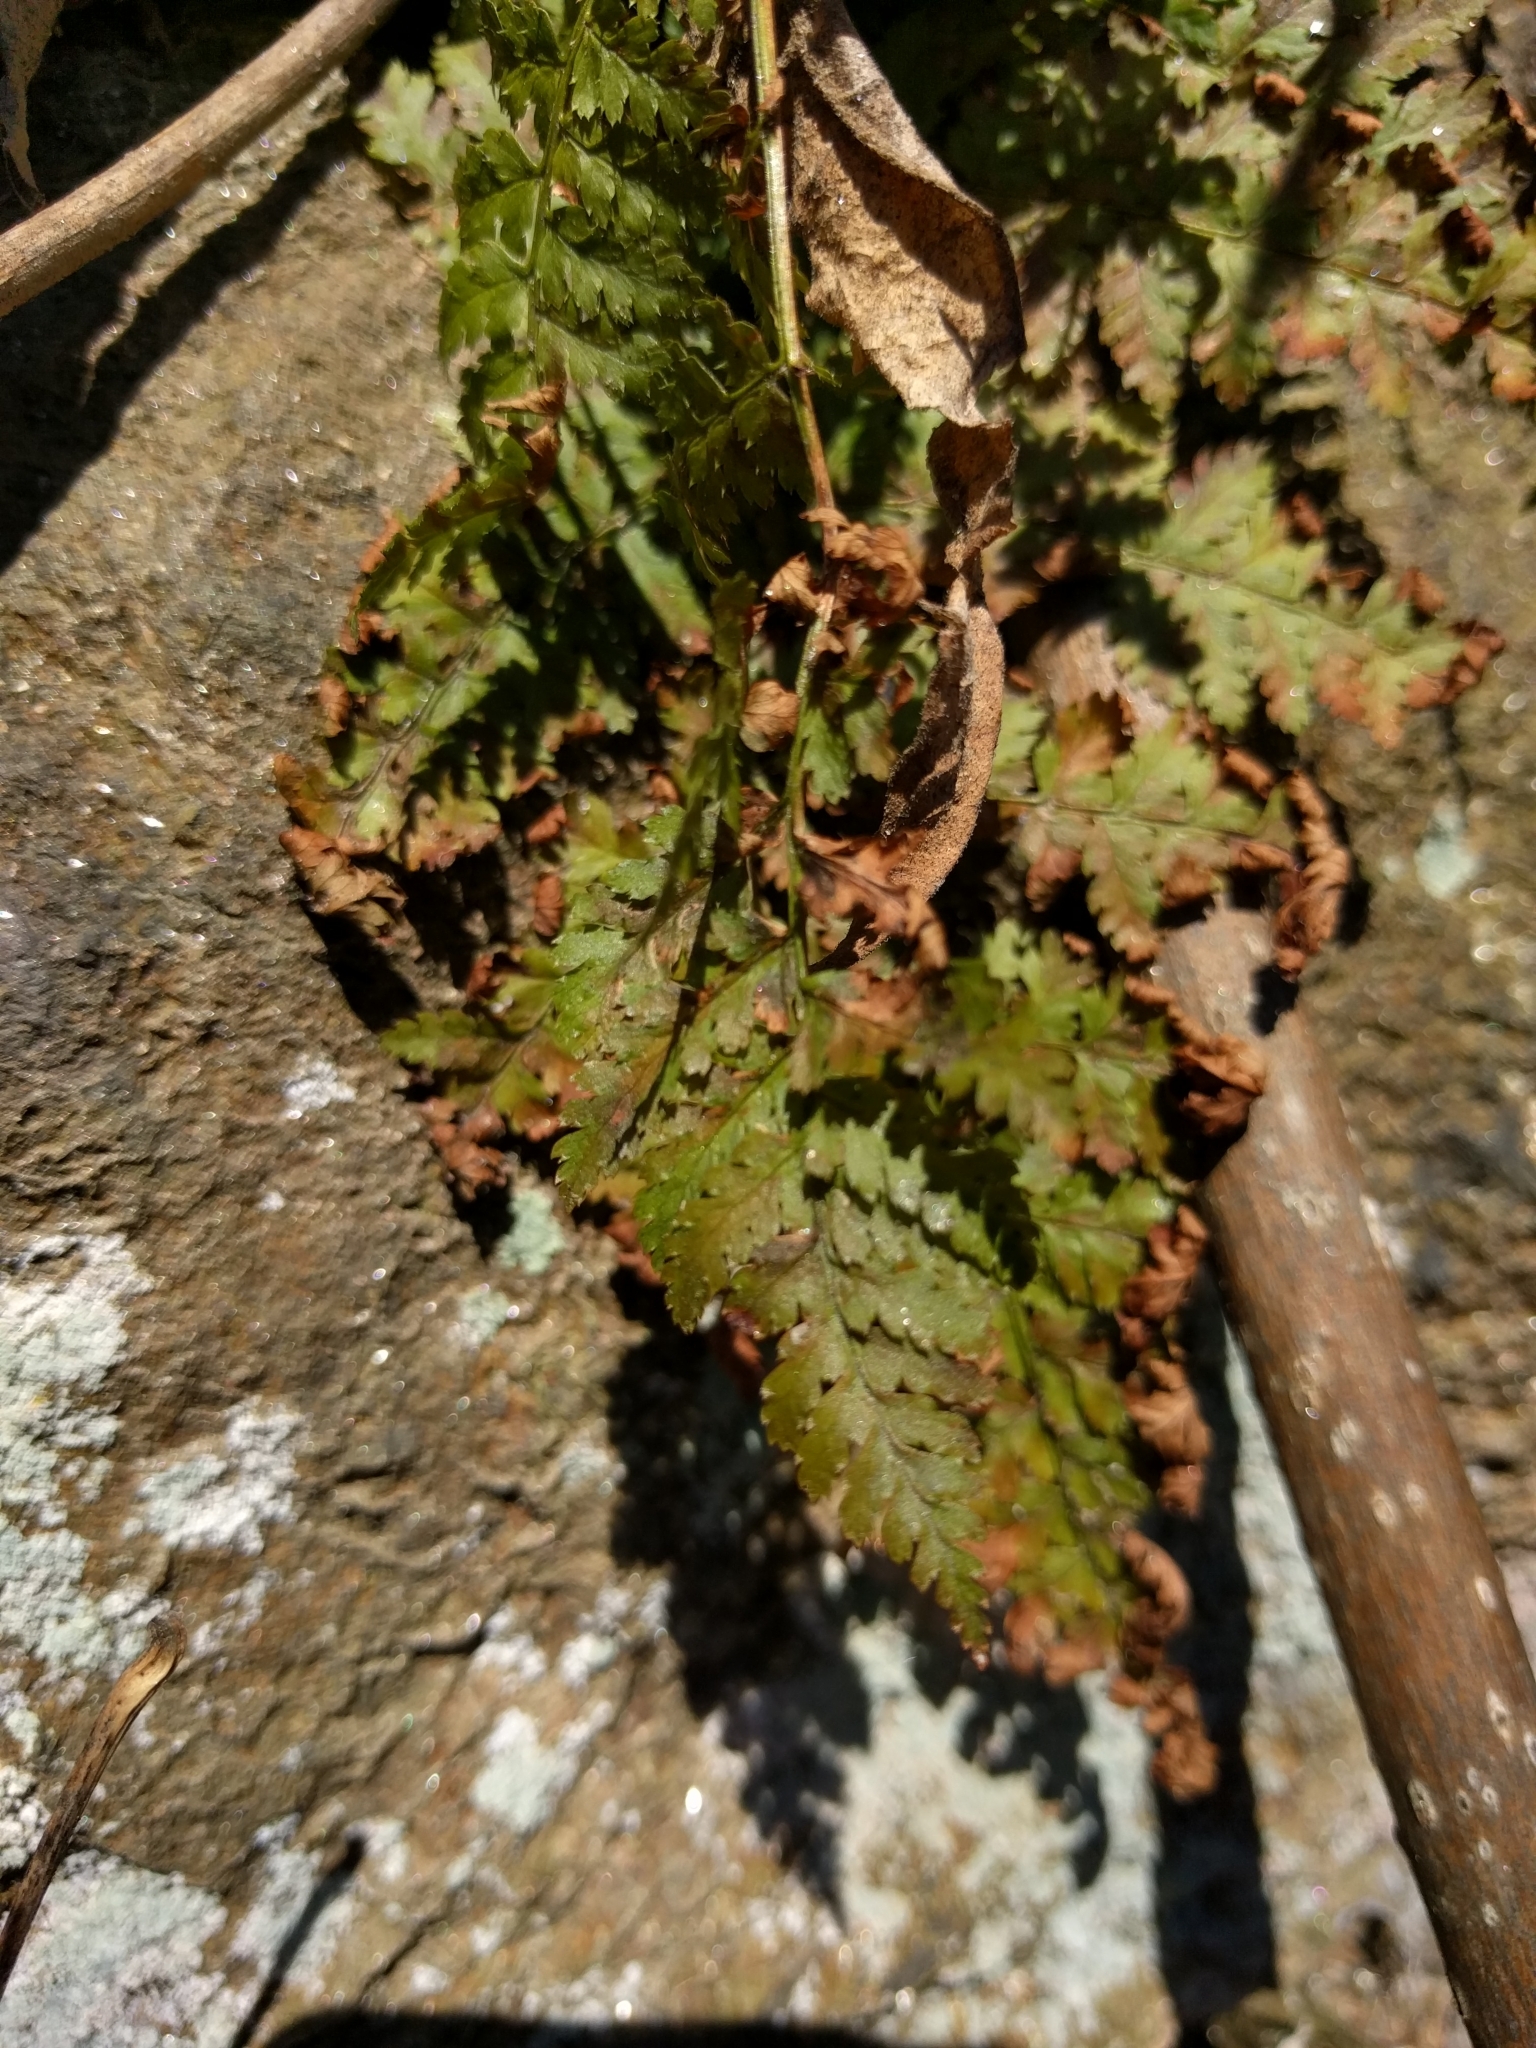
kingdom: Plantae
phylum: Tracheophyta
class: Polypodiopsida
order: Polypodiales
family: Dryopteridaceae
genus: Dryopteris
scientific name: Dryopteris intermedia
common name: Evergreen wood fern
